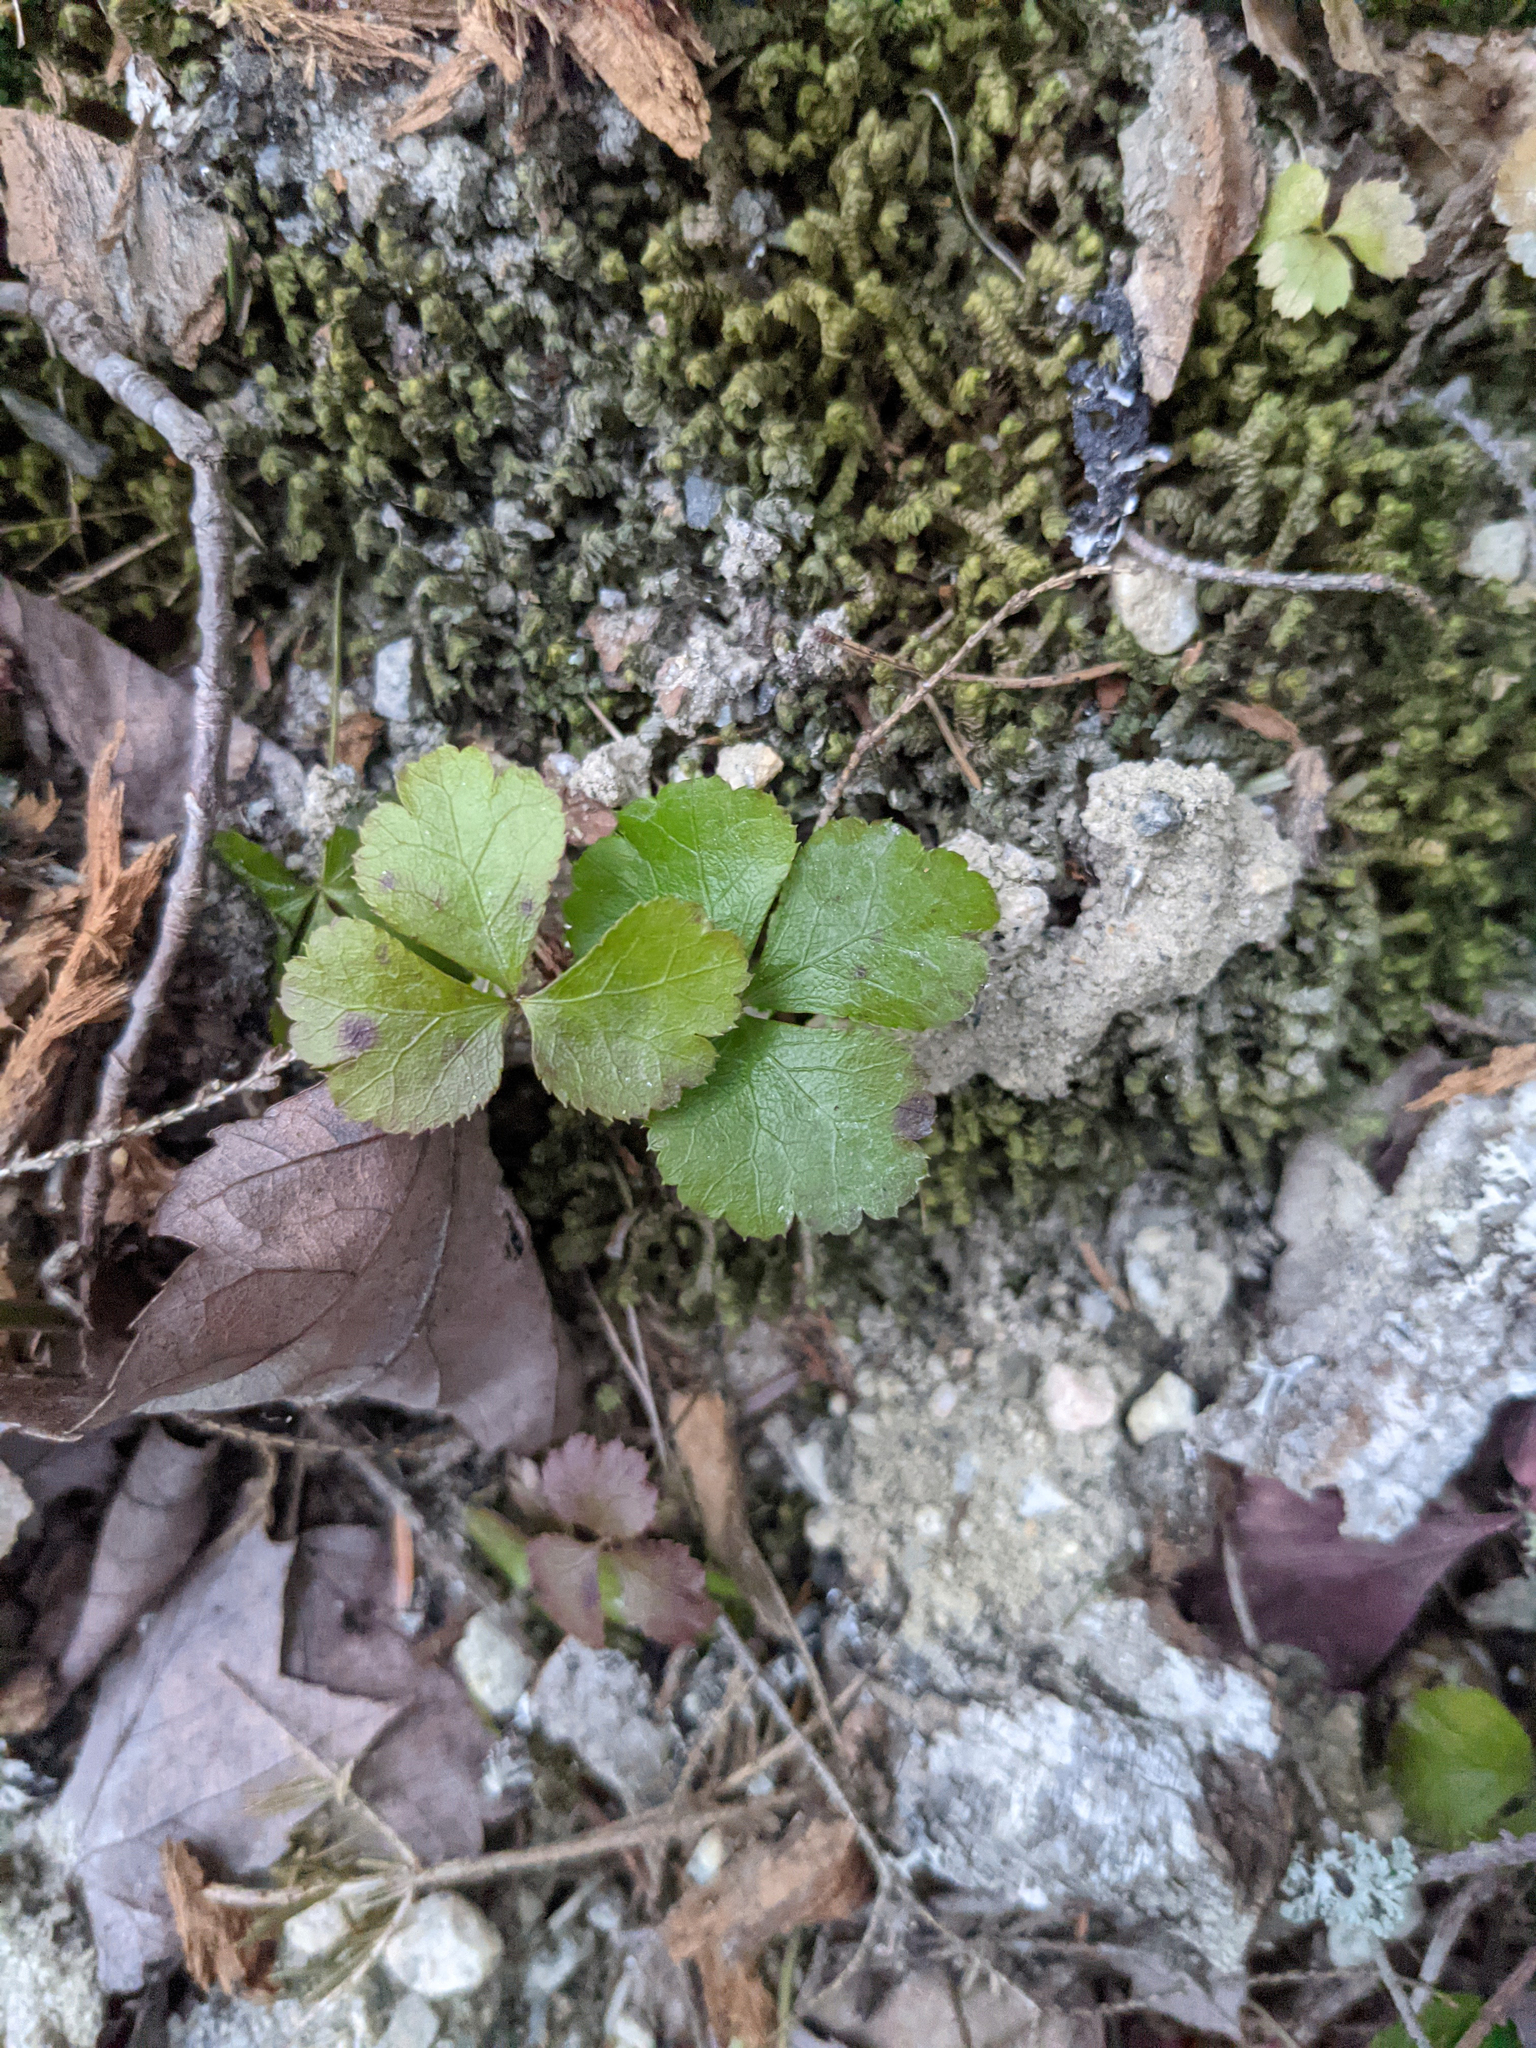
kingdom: Plantae
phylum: Tracheophyta
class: Magnoliopsida
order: Ranunculales
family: Ranunculaceae
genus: Coptis
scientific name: Coptis trifolia
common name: Canker-root
